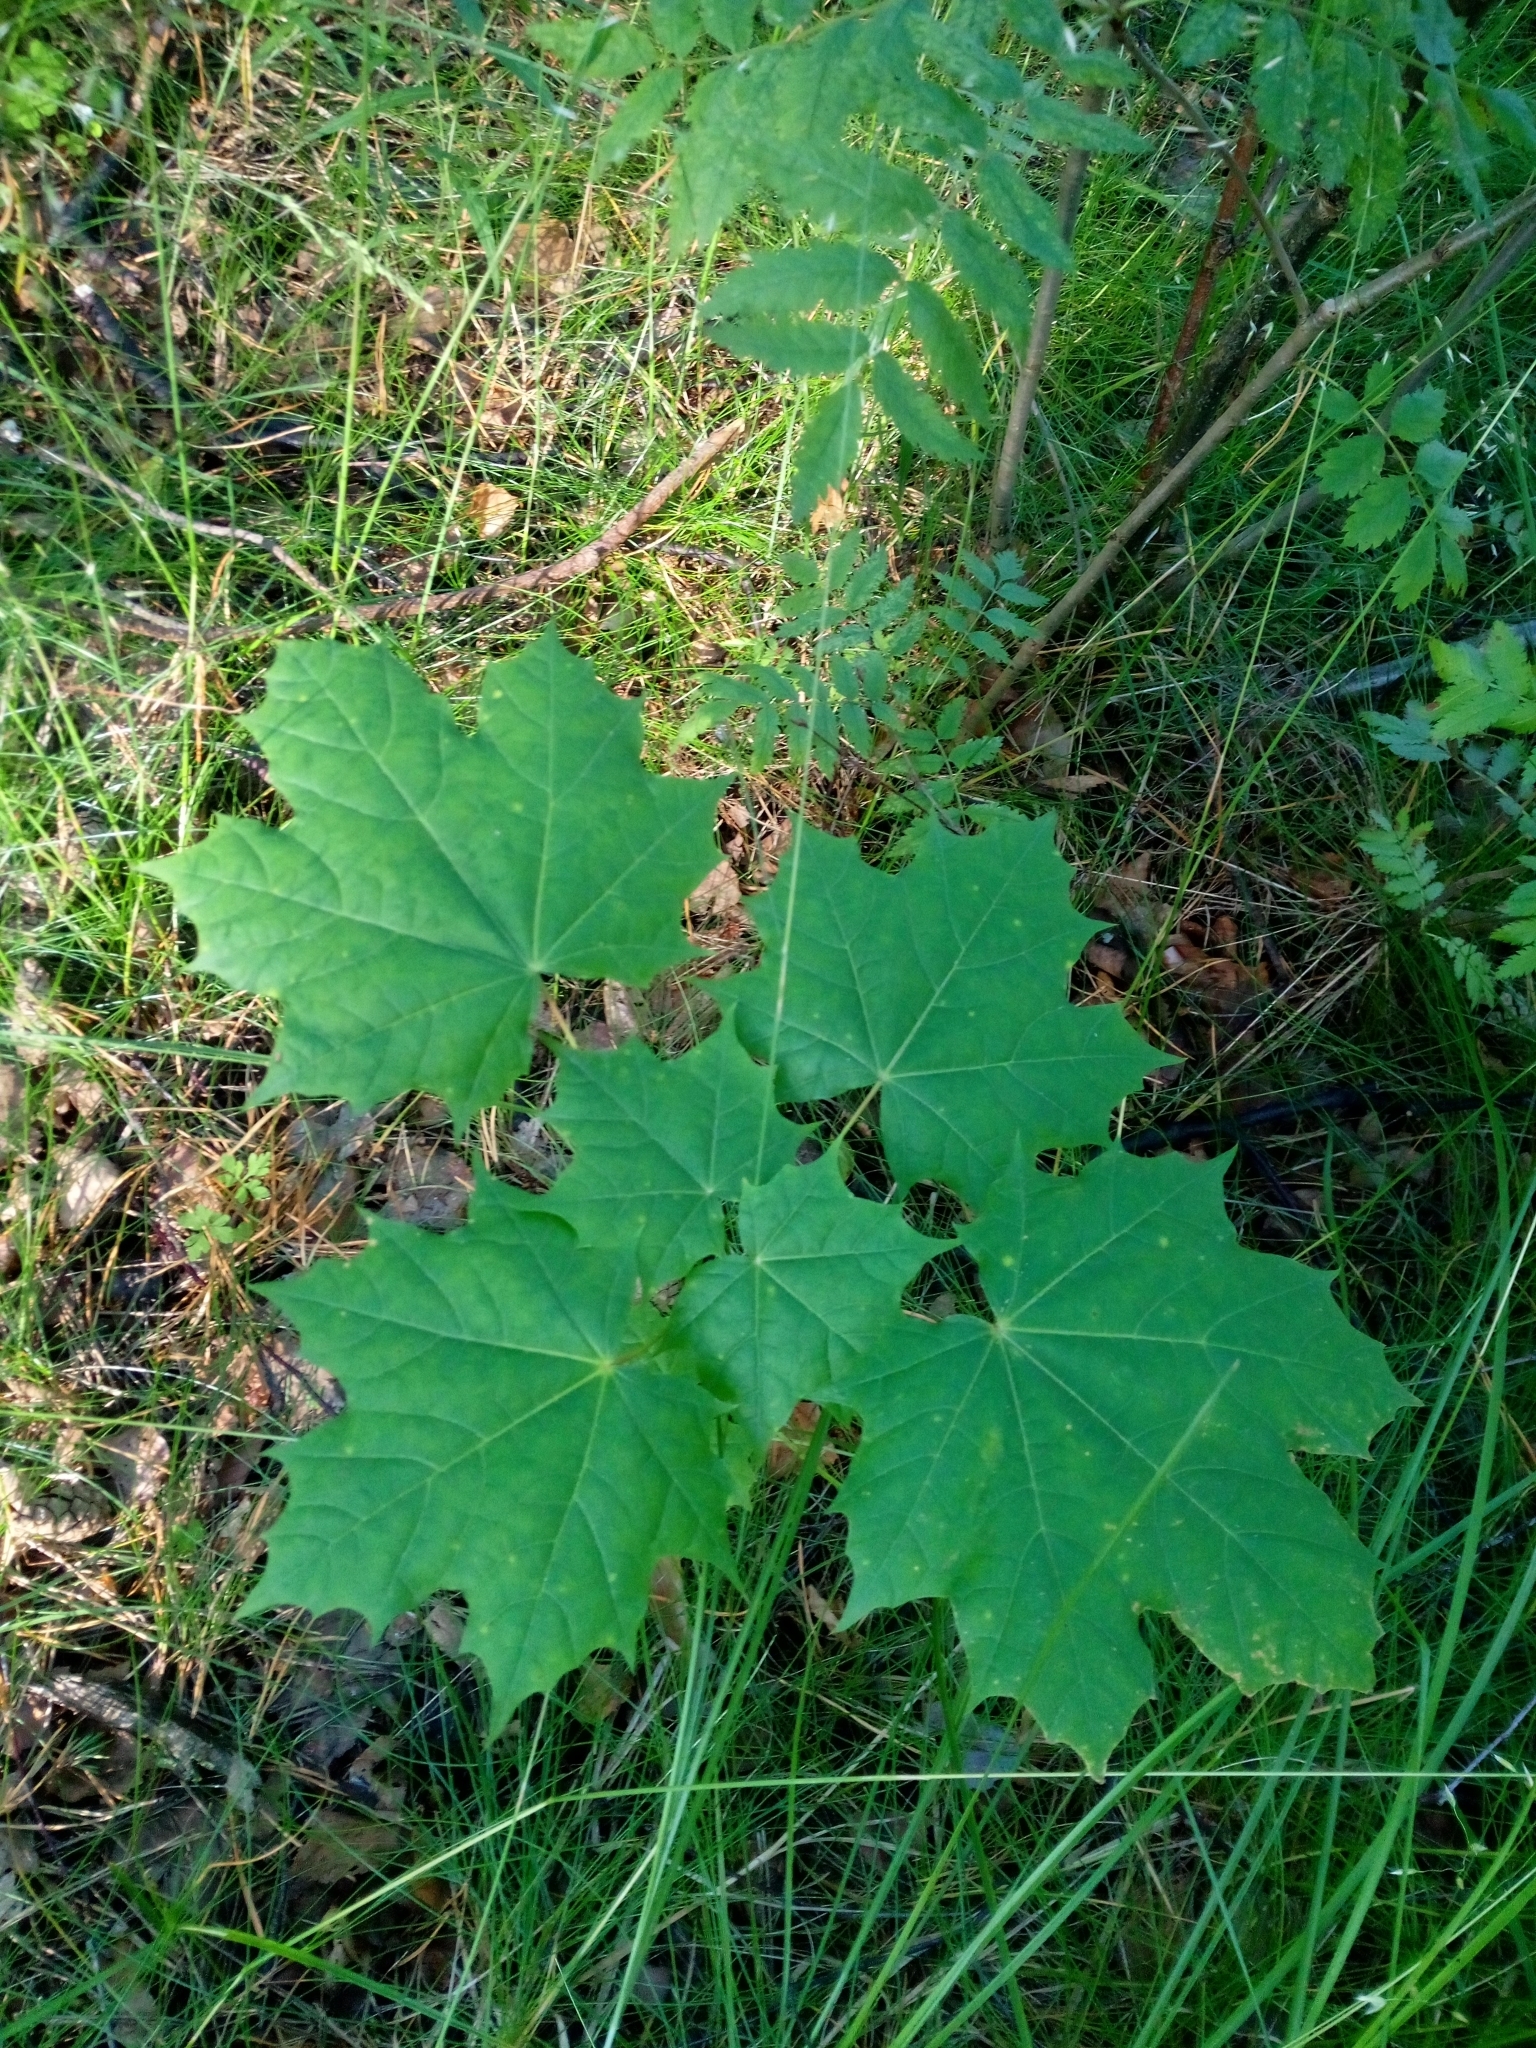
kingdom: Plantae
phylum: Tracheophyta
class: Magnoliopsida
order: Sapindales
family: Sapindaceae
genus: Acer
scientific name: Acer platanoides
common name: Norway maple
